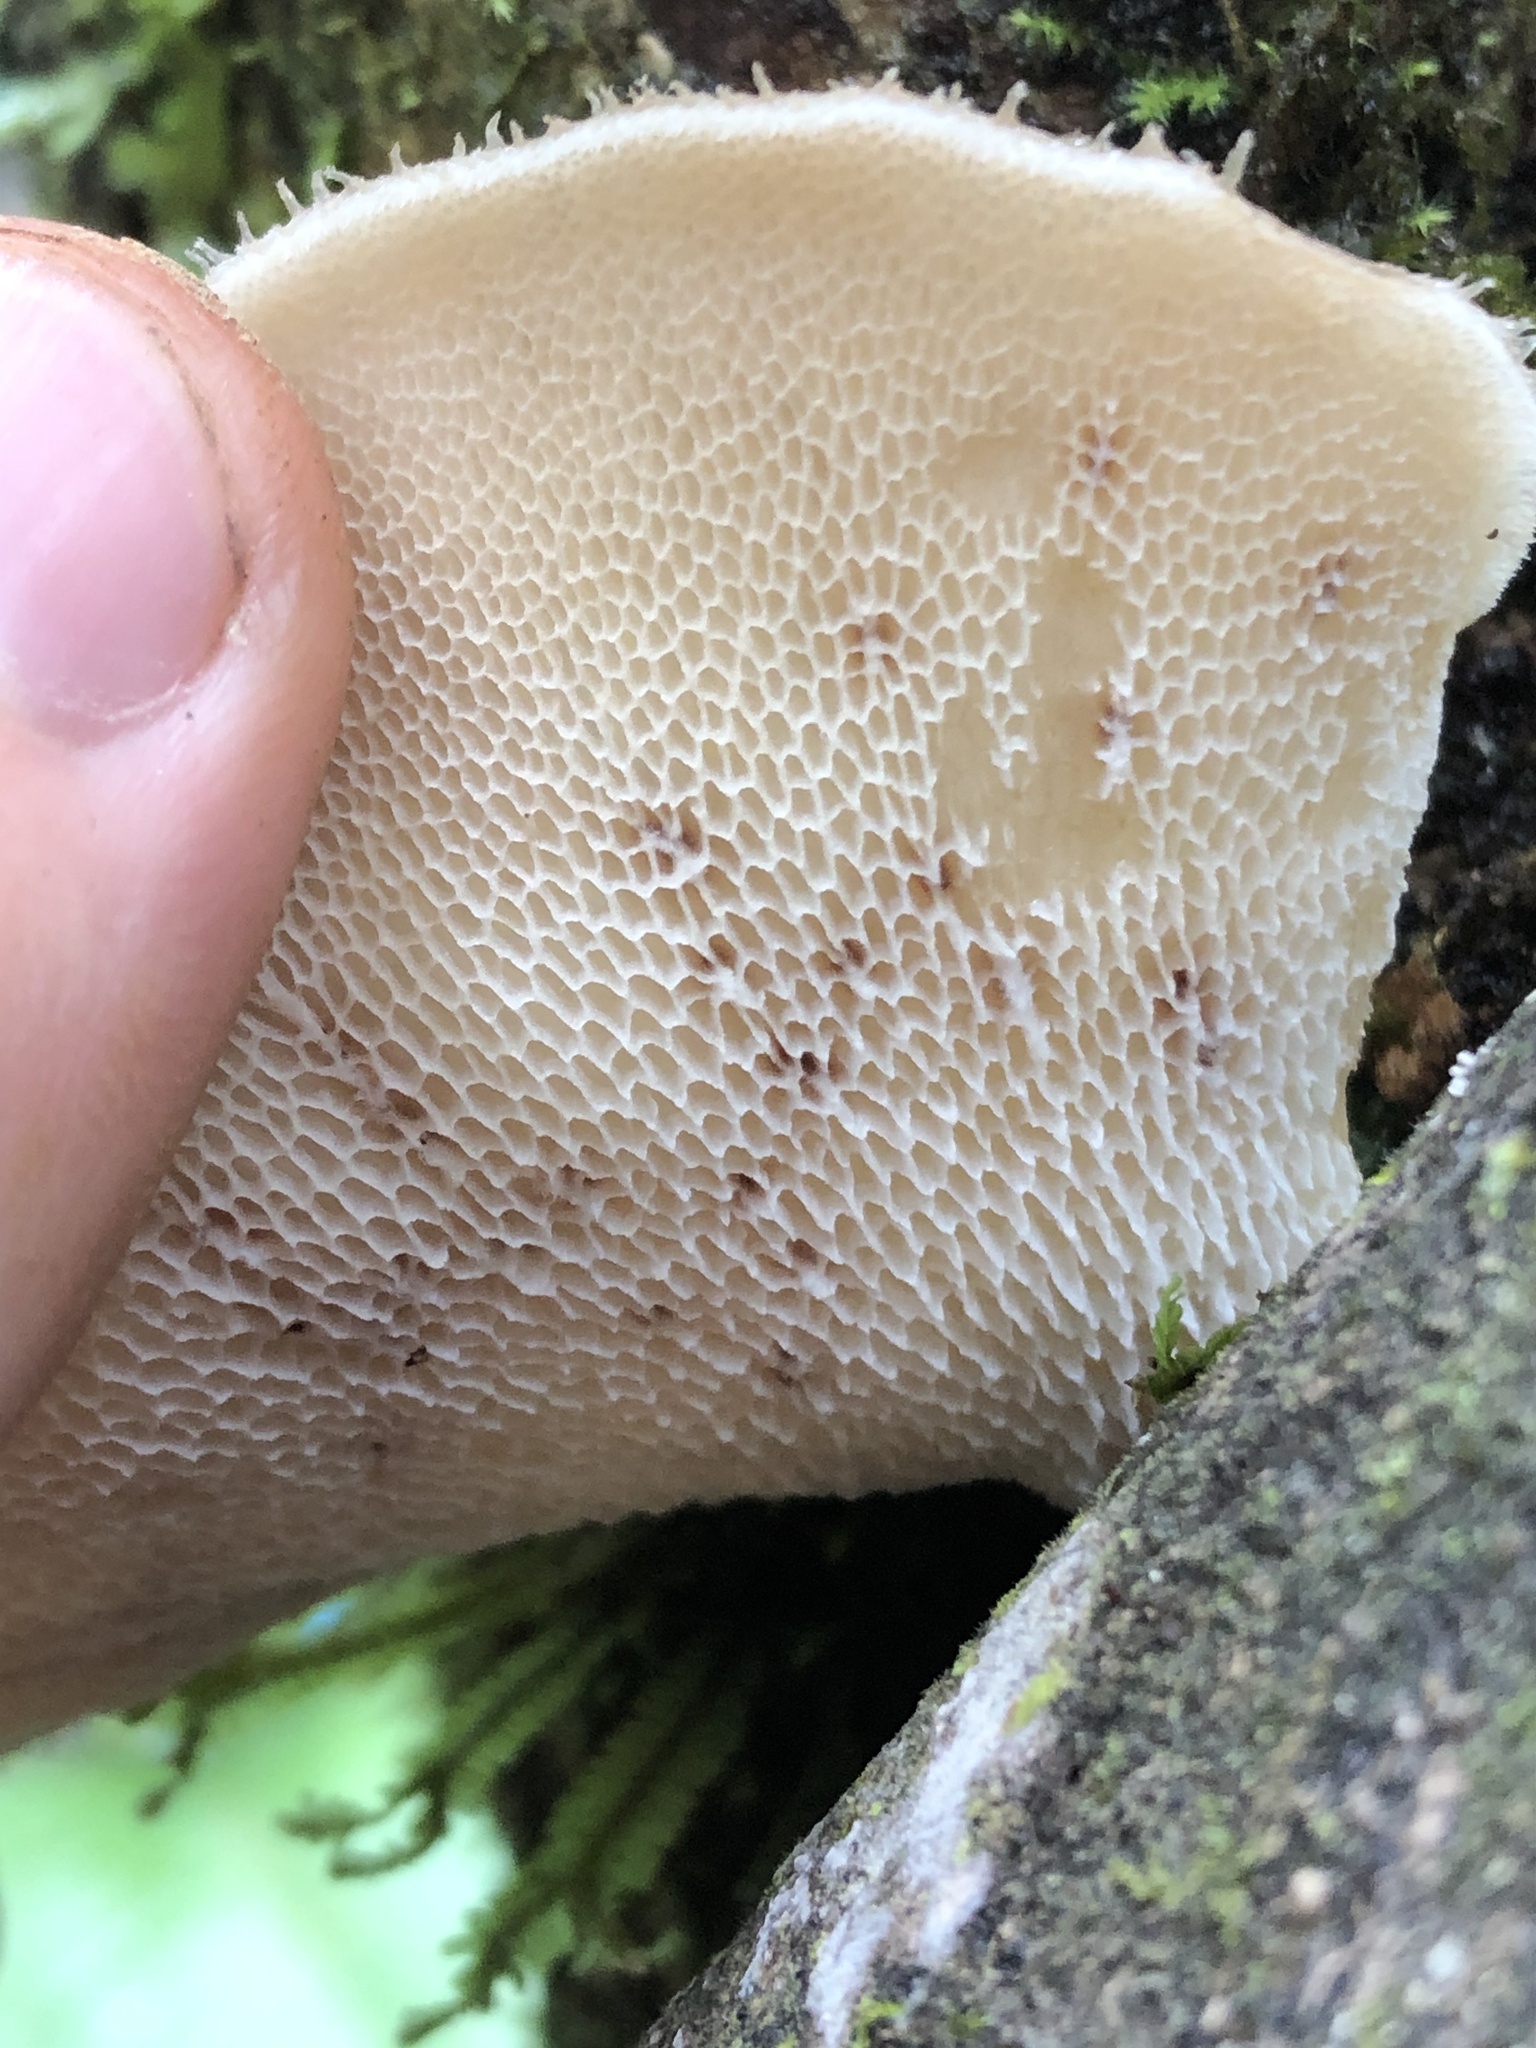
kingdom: Fungi
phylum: Basidiomycota
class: Agaricomycetes
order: Polyporales
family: Polyporaceae
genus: Echinochaete
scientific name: Echinochaete brachypora
